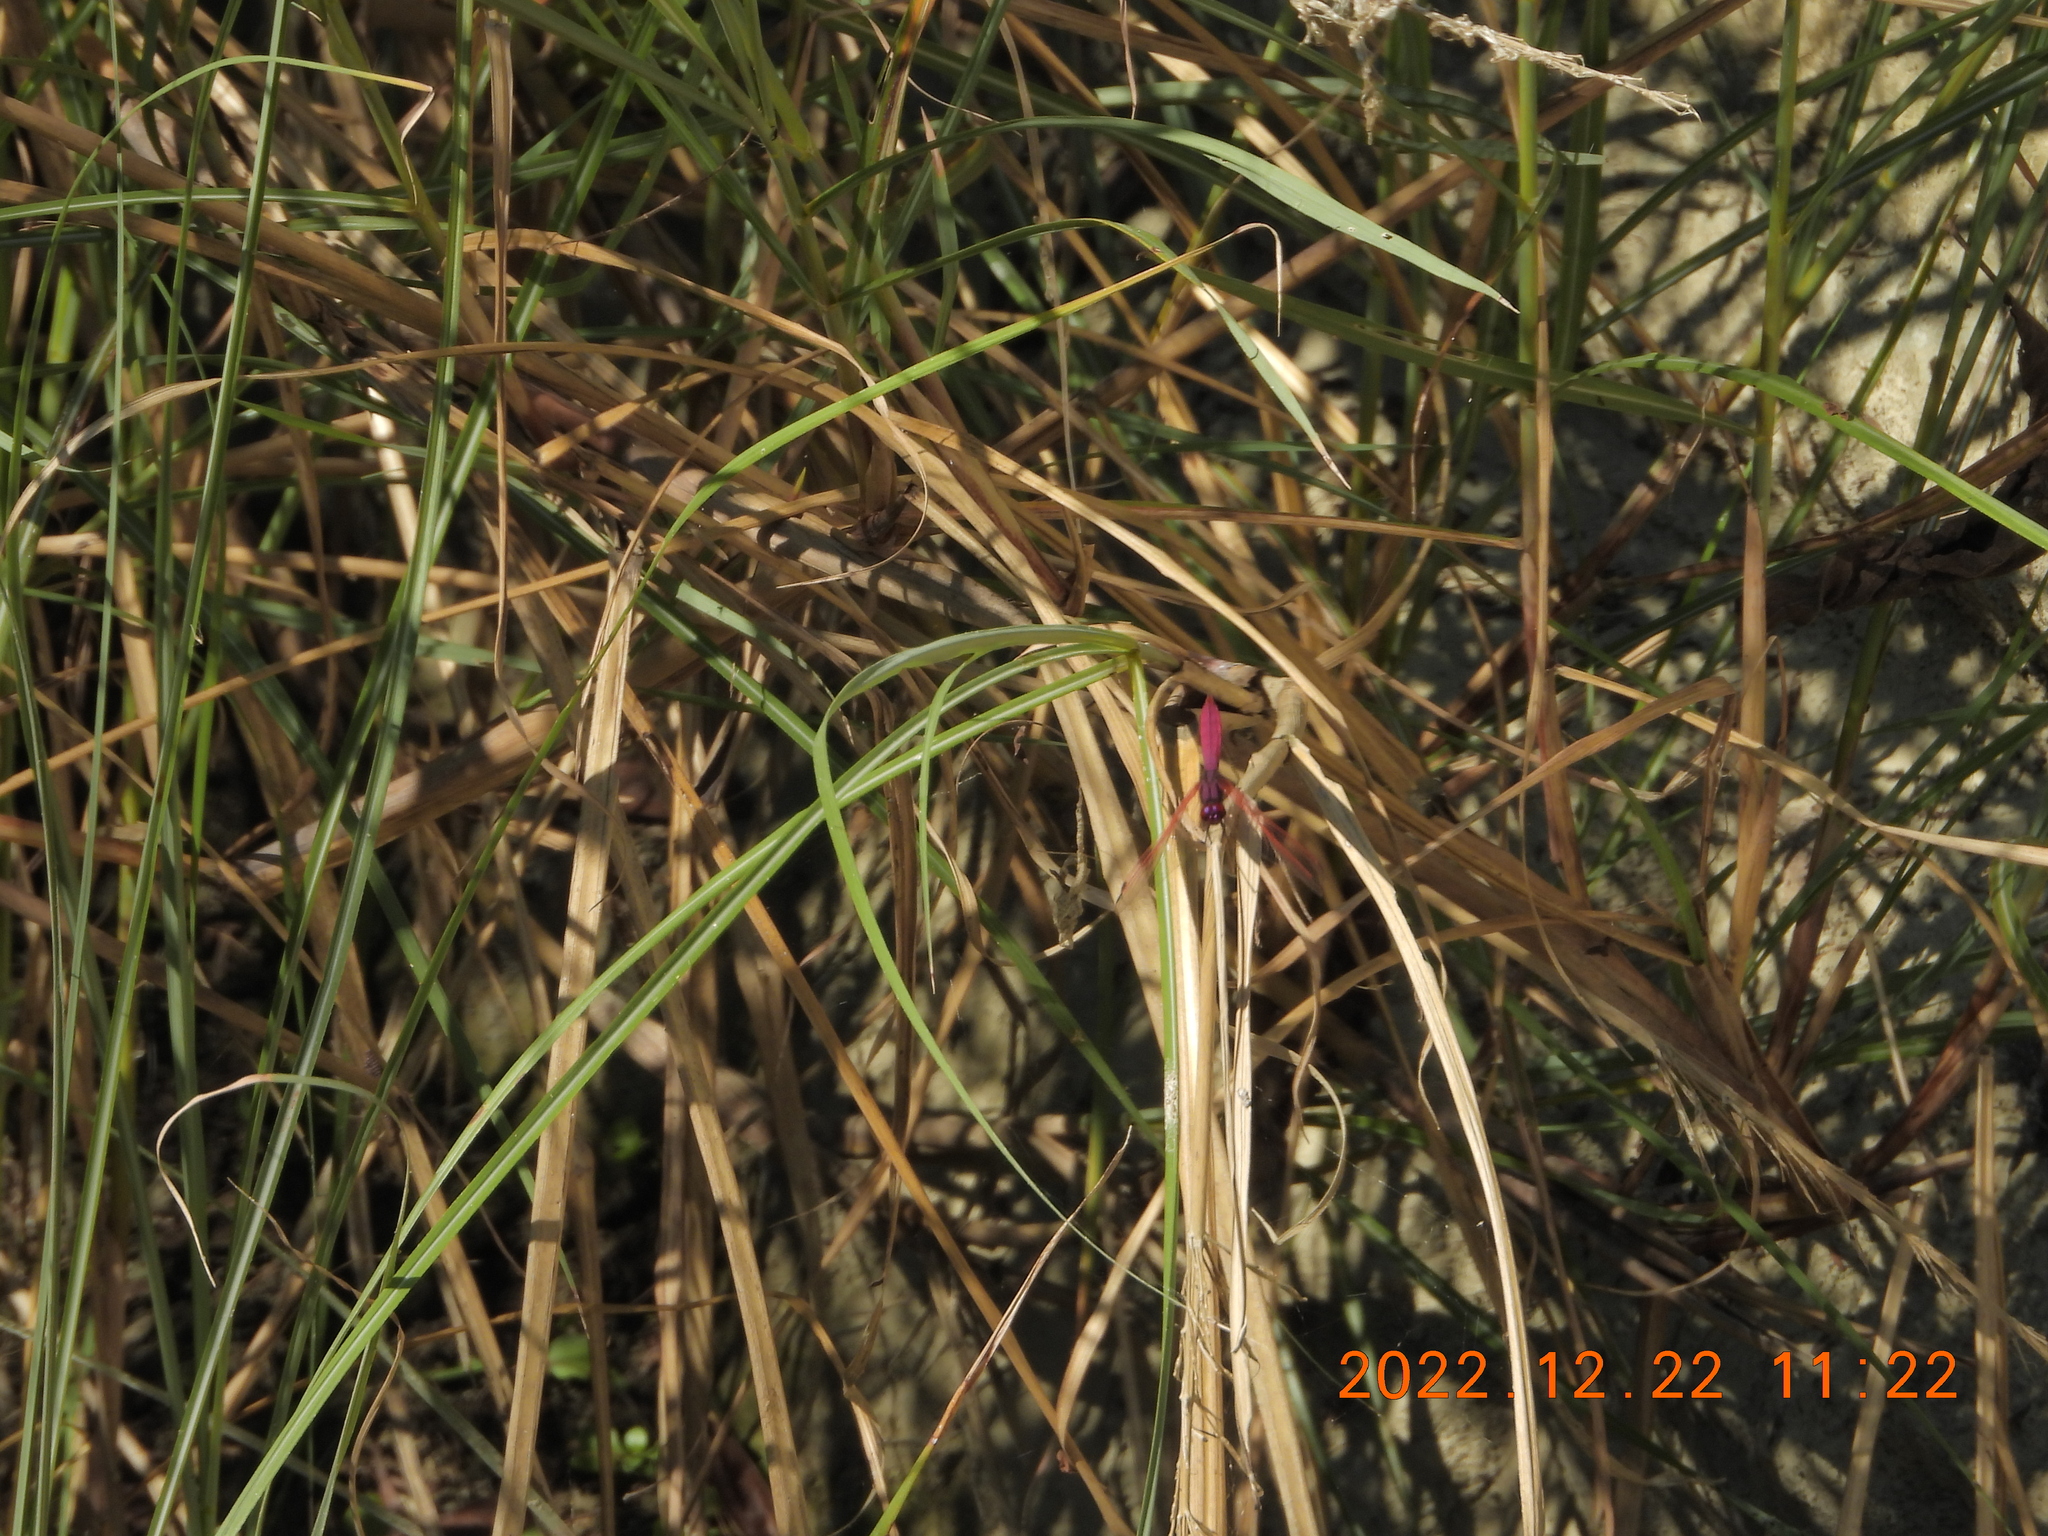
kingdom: Animalia
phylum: Arthropoda
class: Insecta
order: Odonata
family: Libellulidae
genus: Trithemis
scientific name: Trithemis aurora
